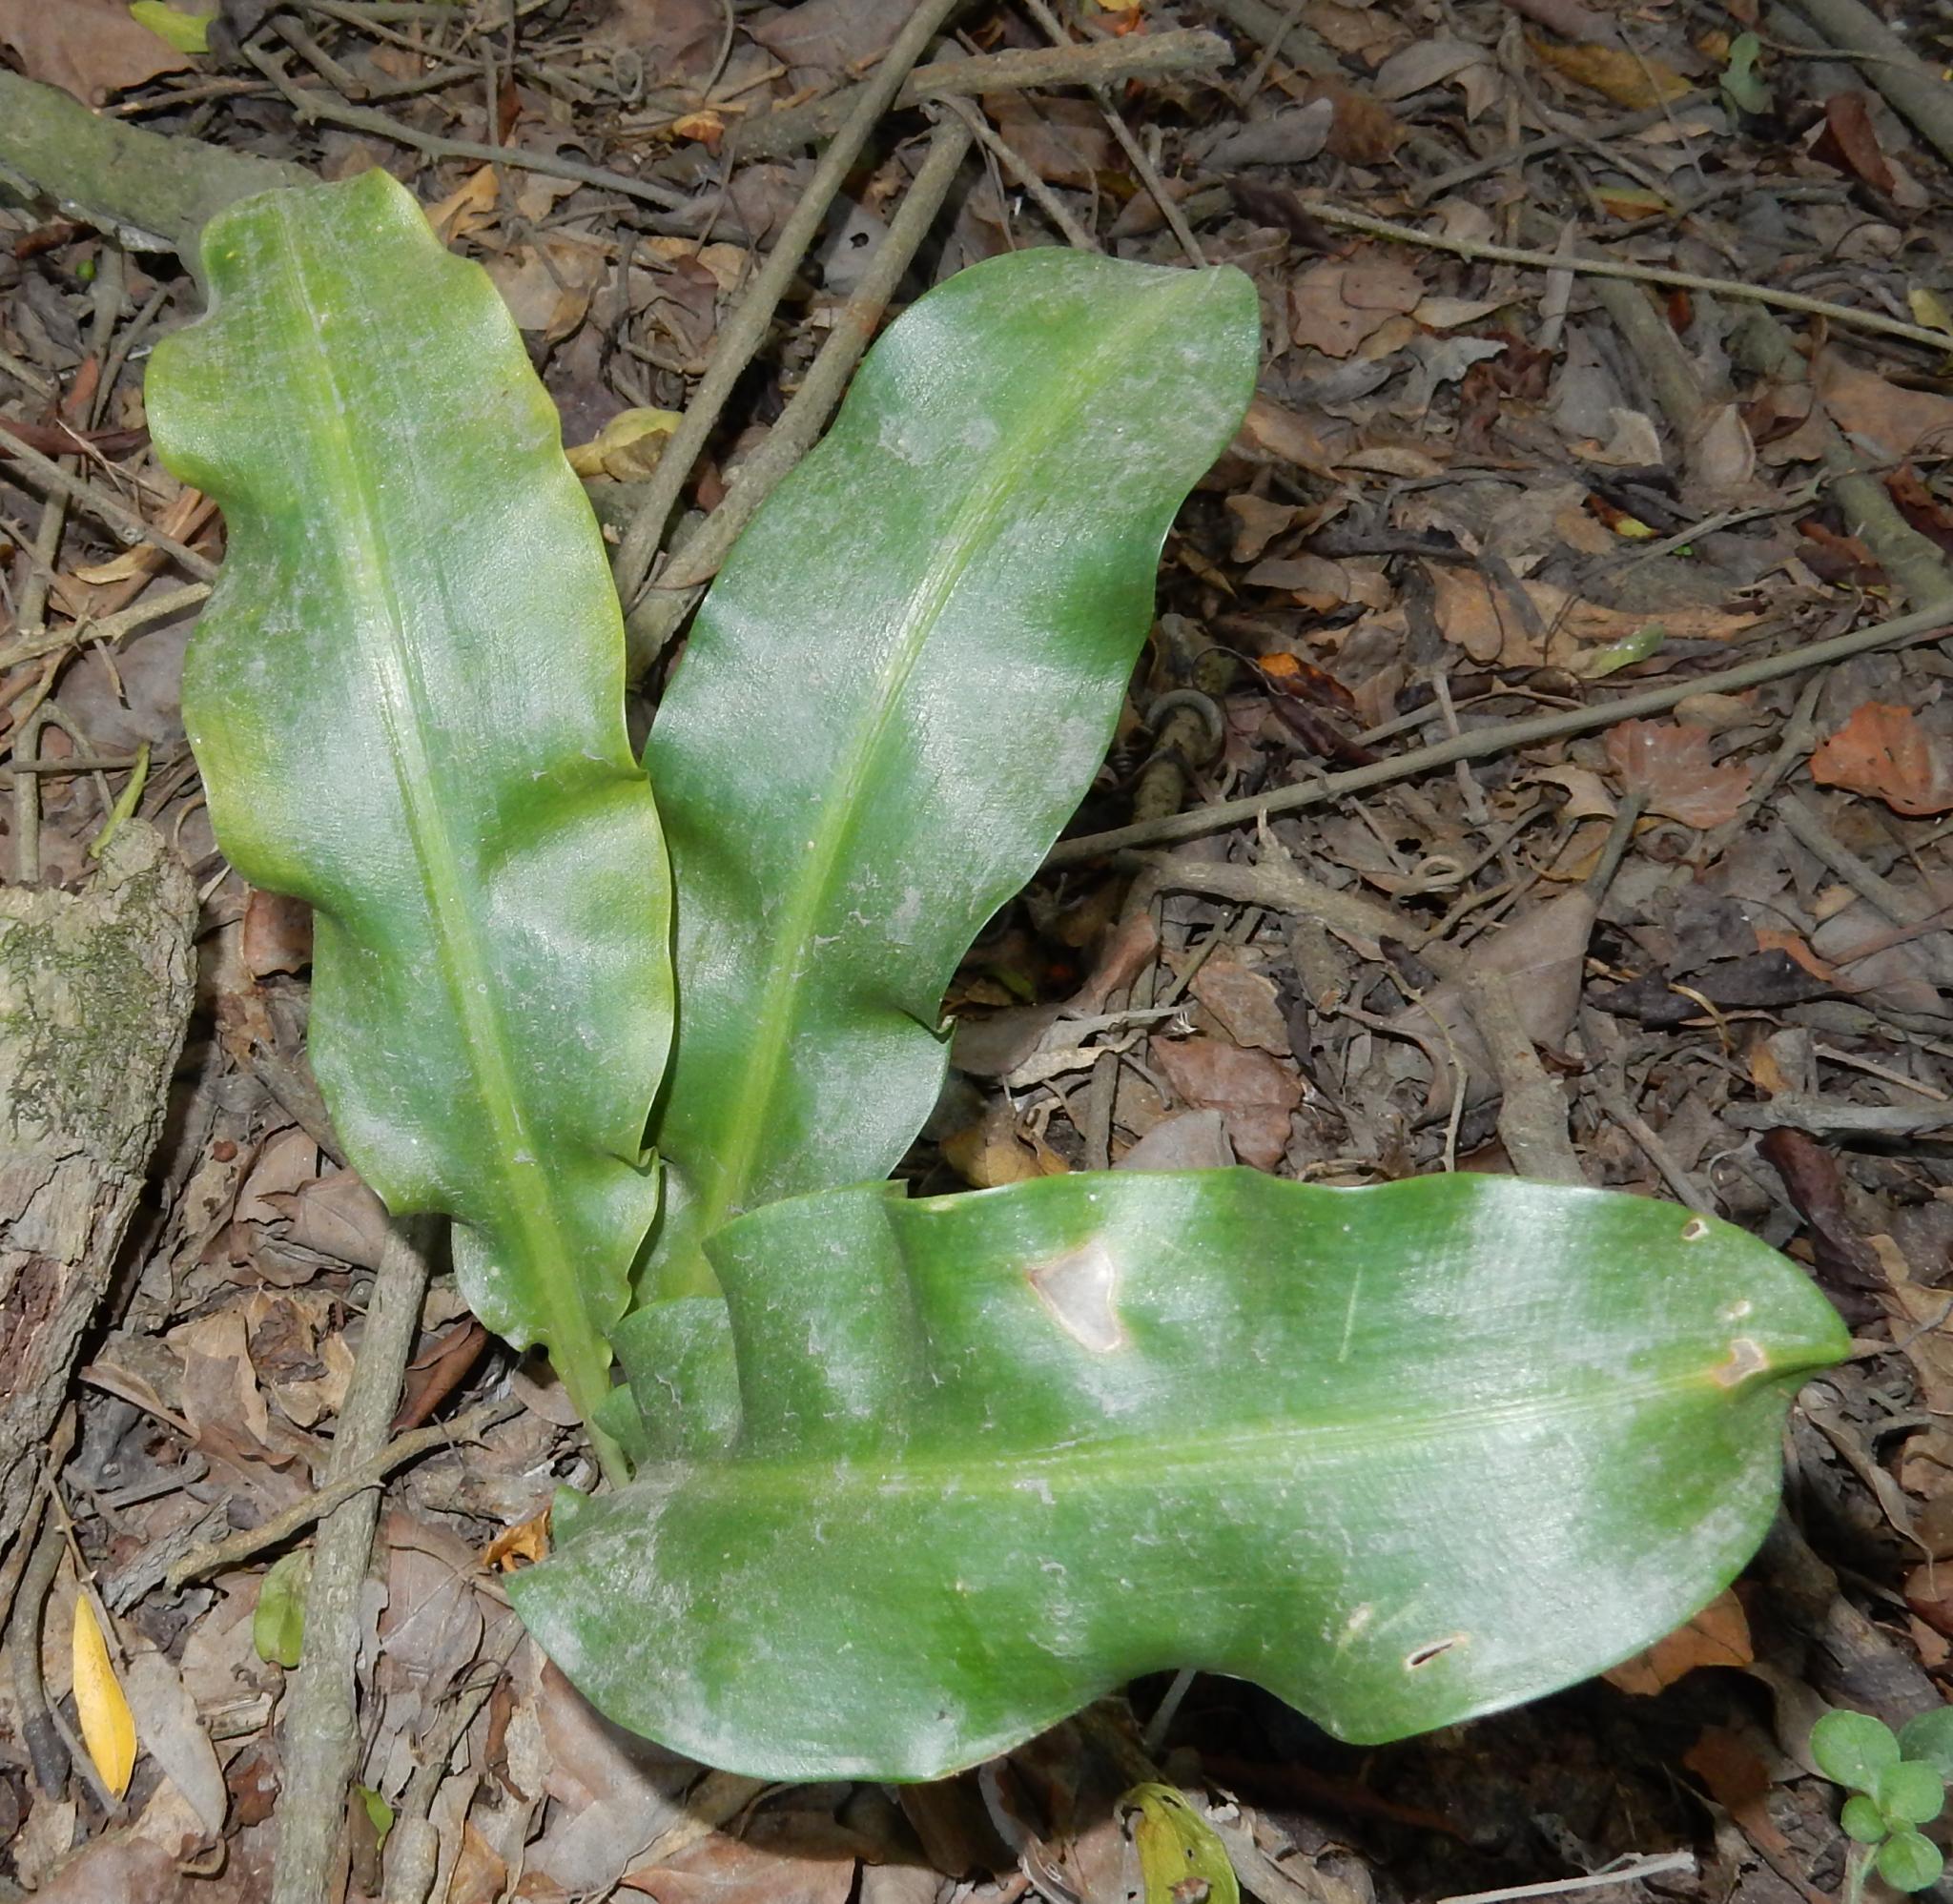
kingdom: Plantae
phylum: Tracheophyta
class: Liliopsida
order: Asparagales
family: Amaryllidaceae
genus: Scadoxus
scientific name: Scadoxus membranaceus
